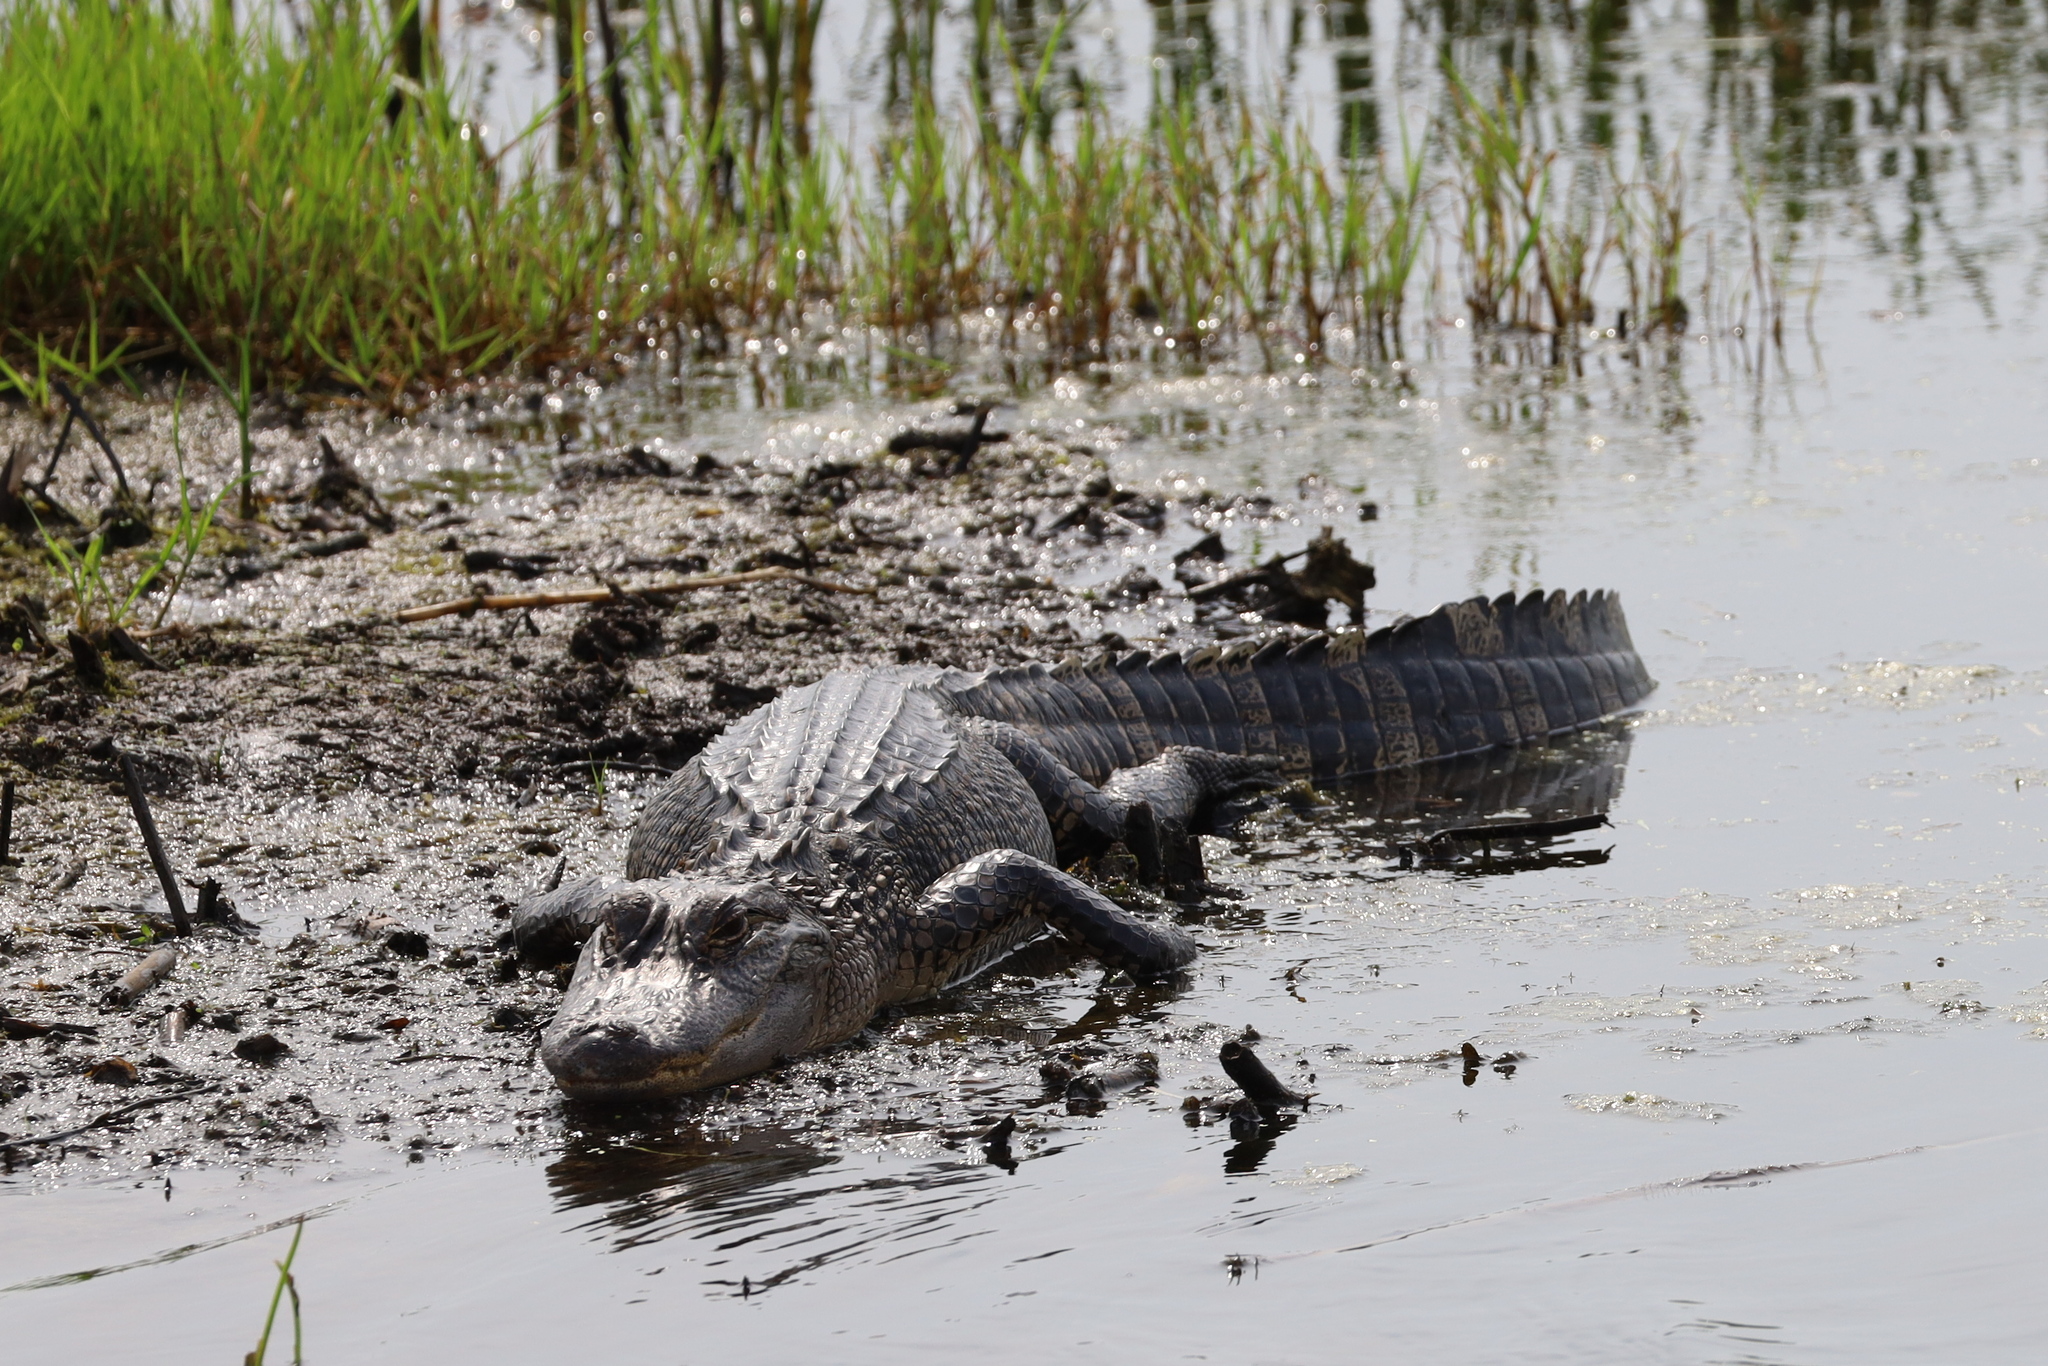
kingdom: Animalia
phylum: Chordata
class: Crocodylia
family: Alligatoridae
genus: Alligator
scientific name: Alligator mississippiensis
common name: American alligator
